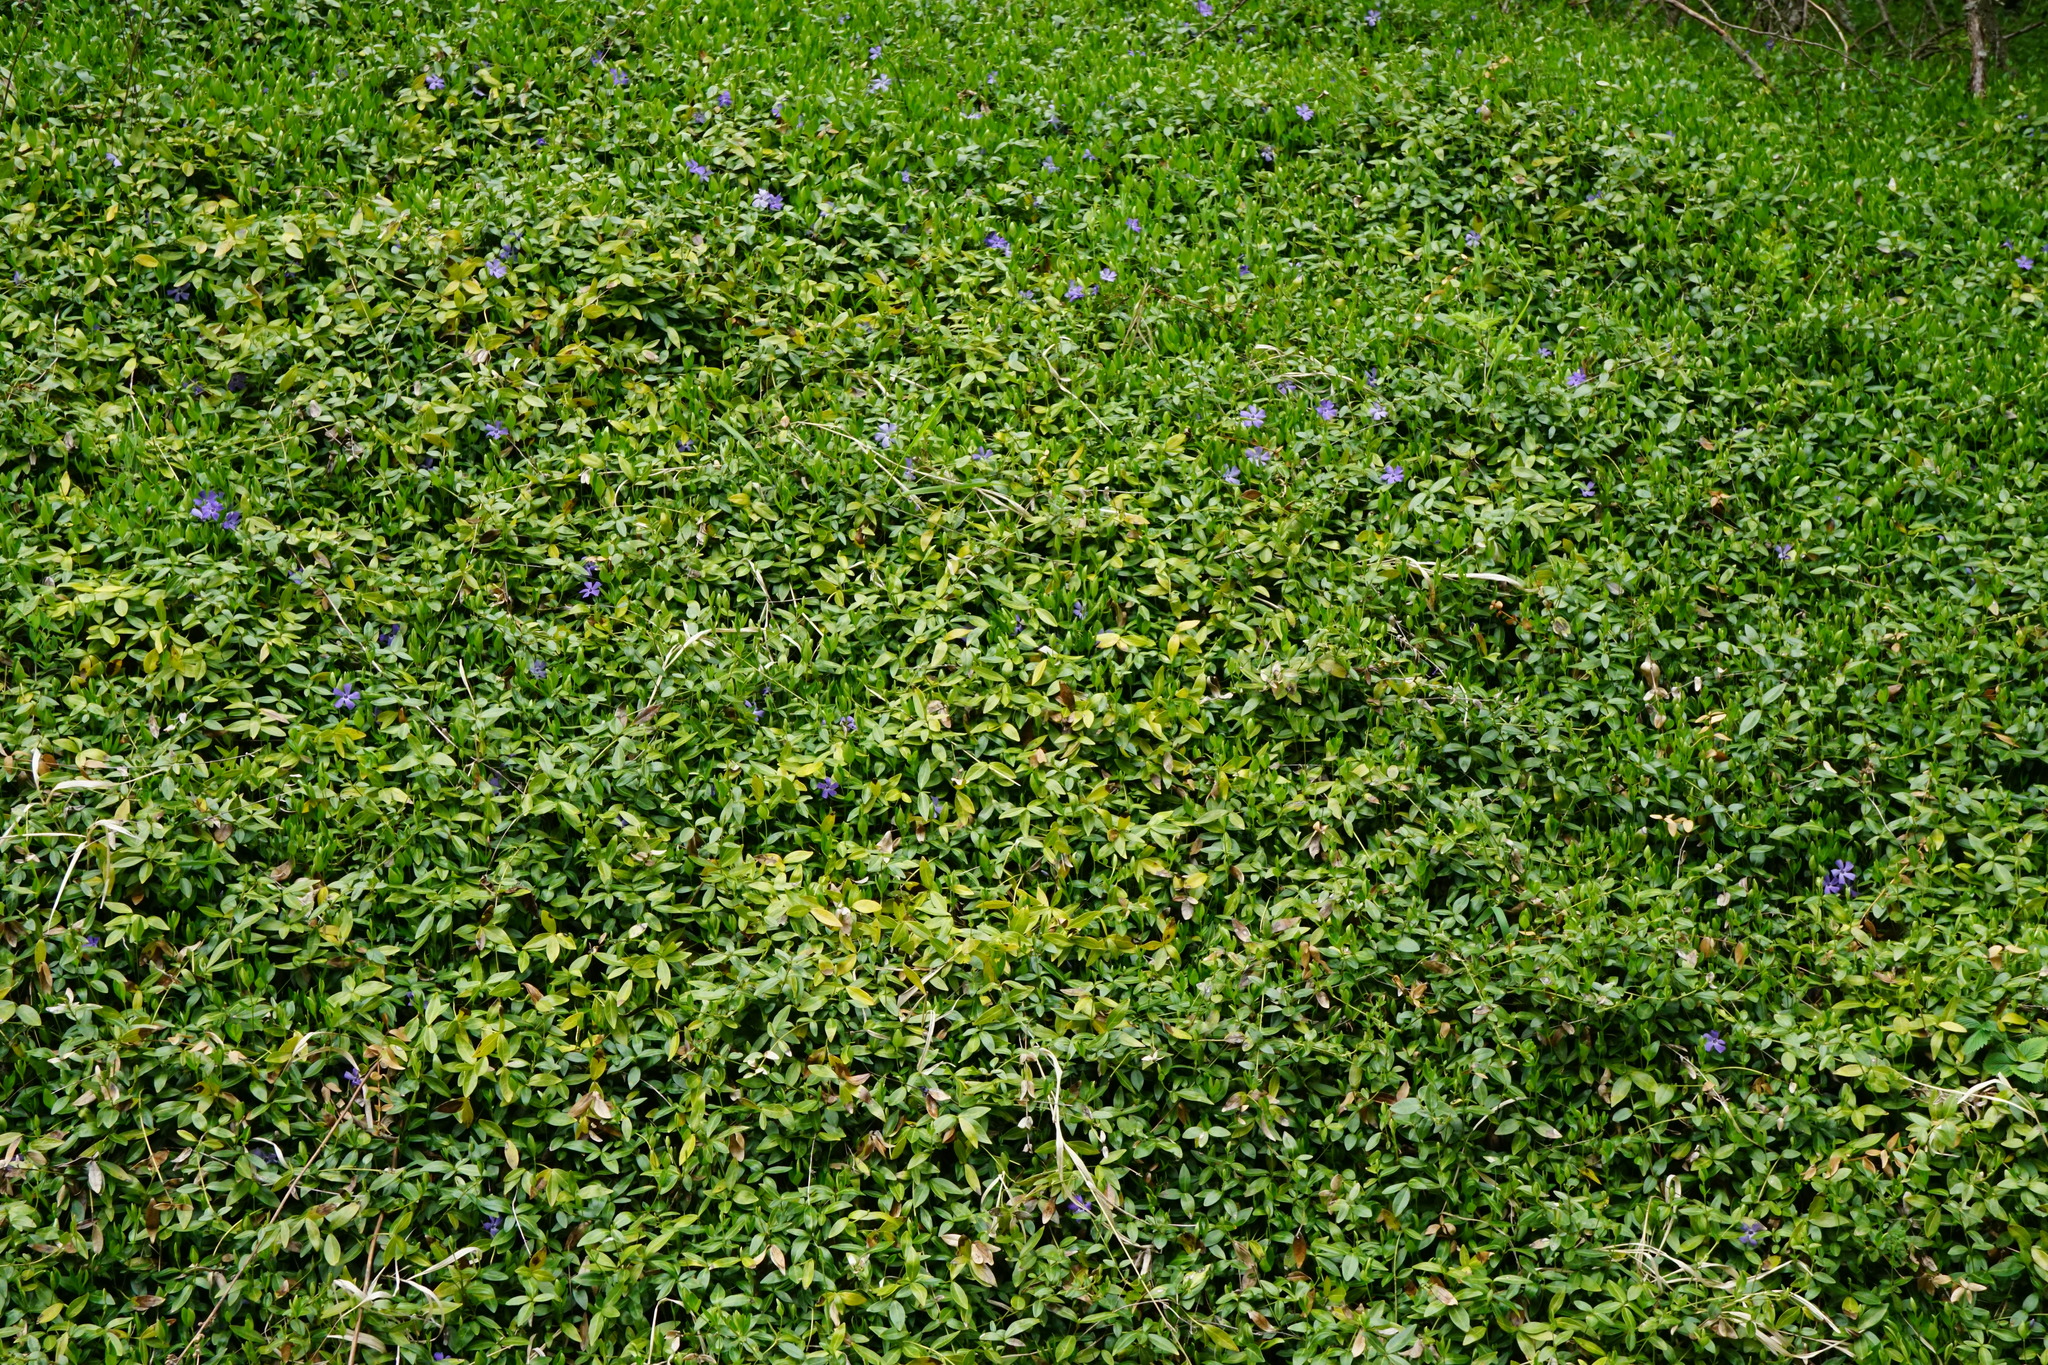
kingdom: Plantae
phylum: Tracheophyta
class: Magnoliopsida
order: Gentianales
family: Apocynaceae
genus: Vinca
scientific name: Vinca minor
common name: Lesser periwinkle
